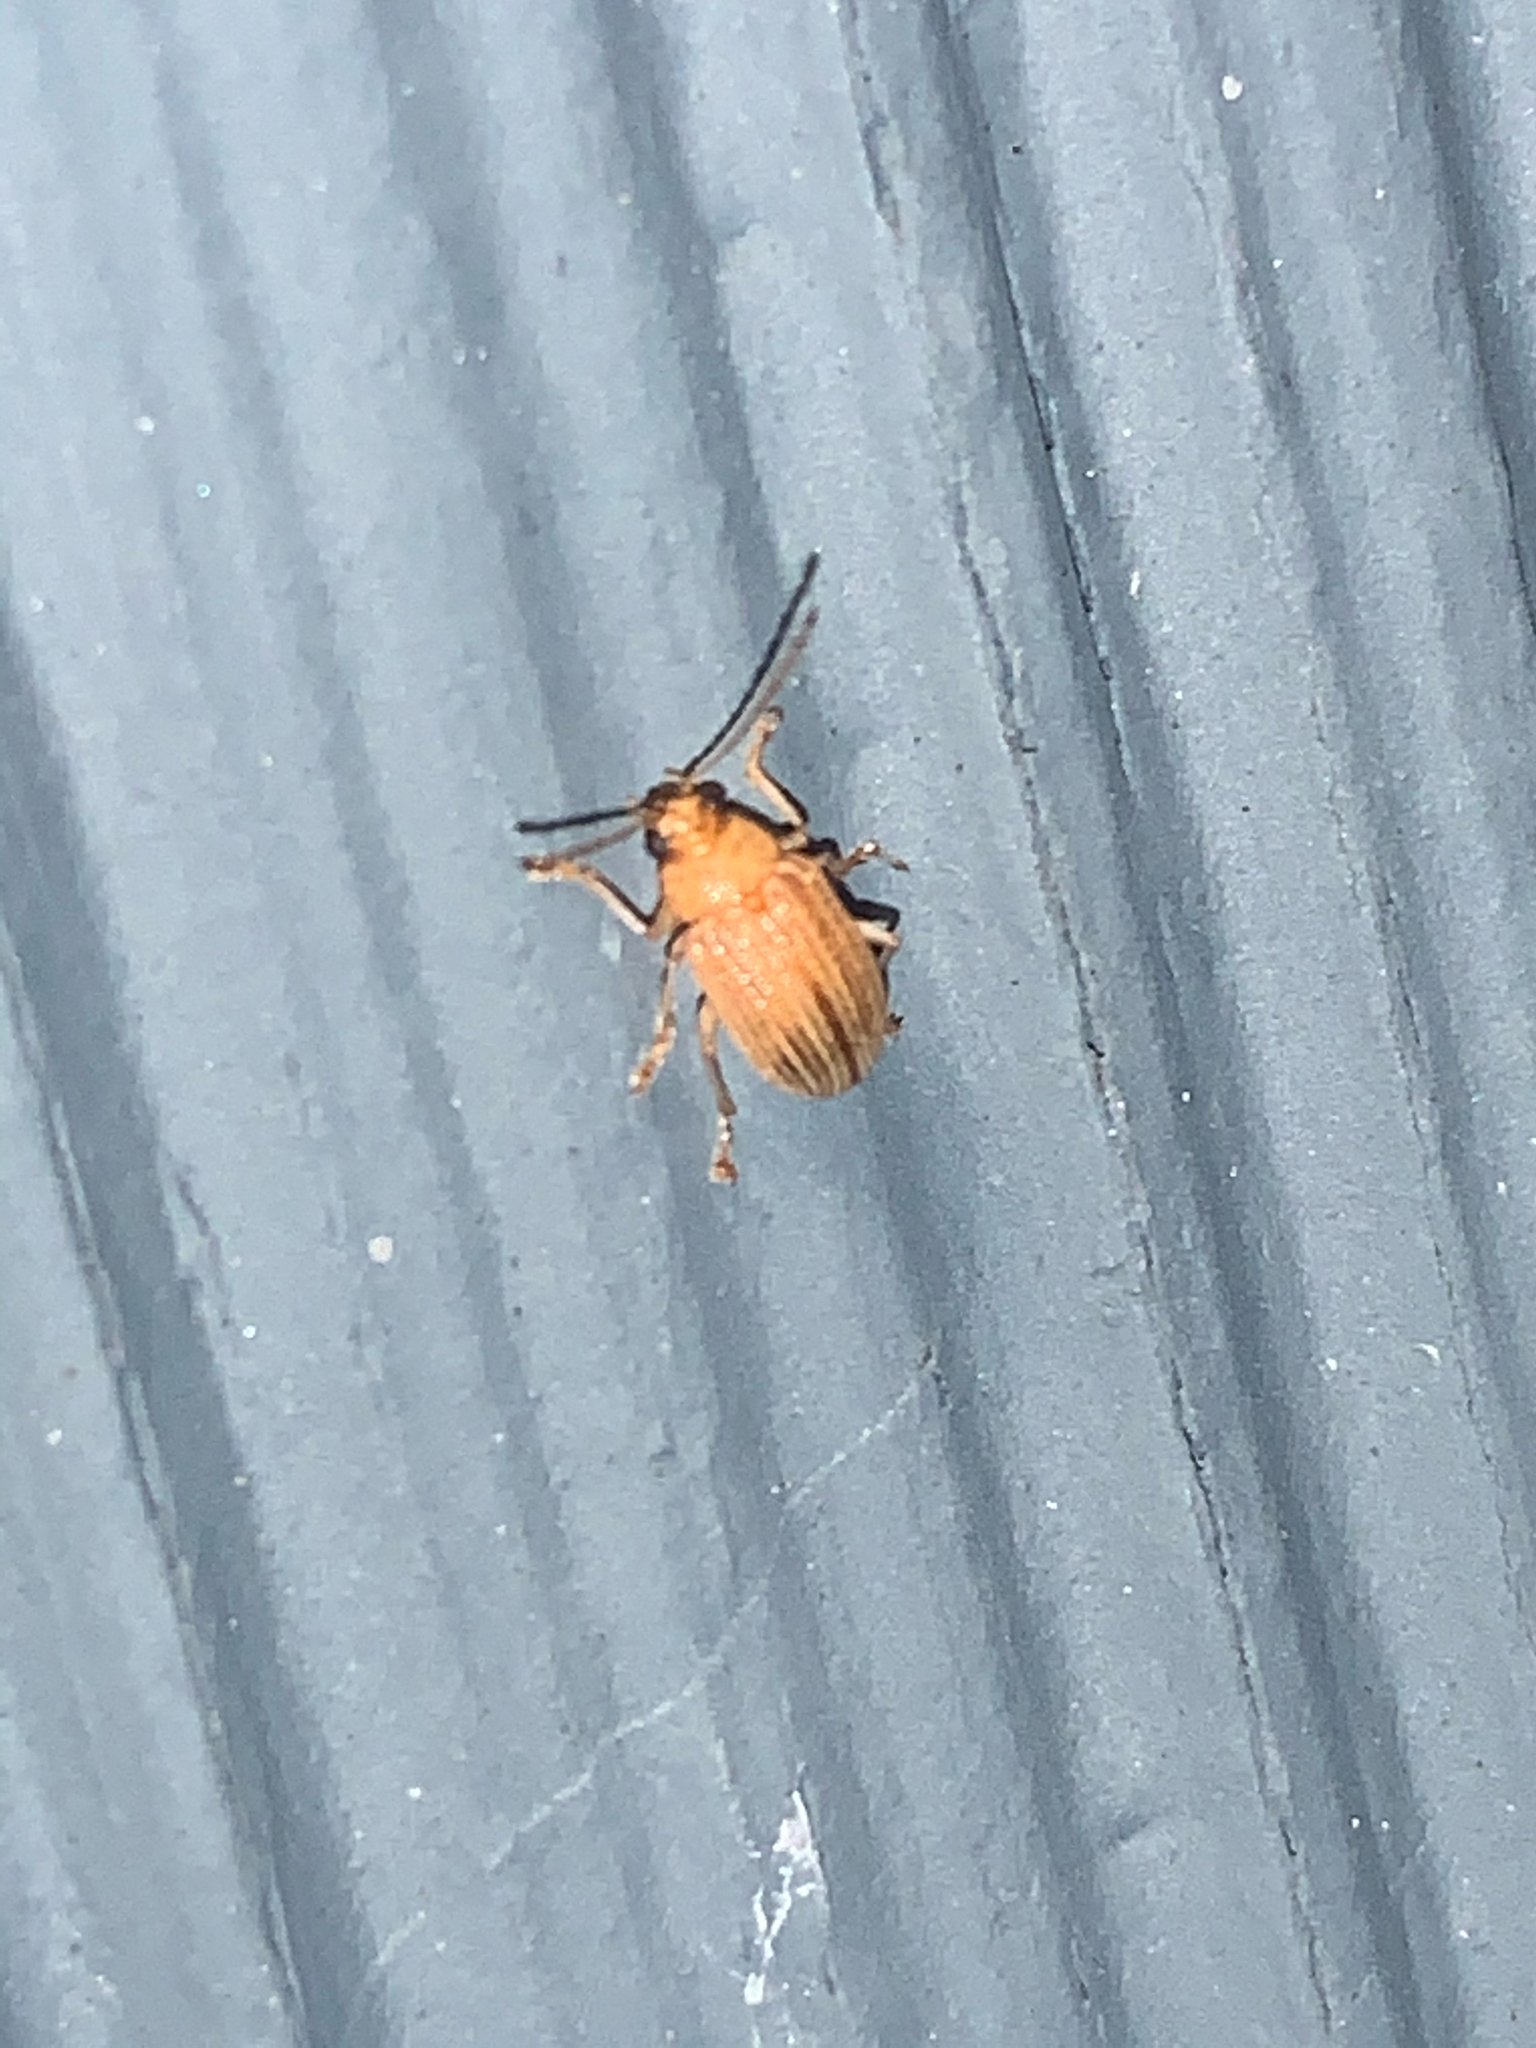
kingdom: Animalia
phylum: Arthropoda
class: Insecta
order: Coleoptera
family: Chrysomelidae
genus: Colaspis
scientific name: Colaspis brunnea
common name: Grape colaspis
